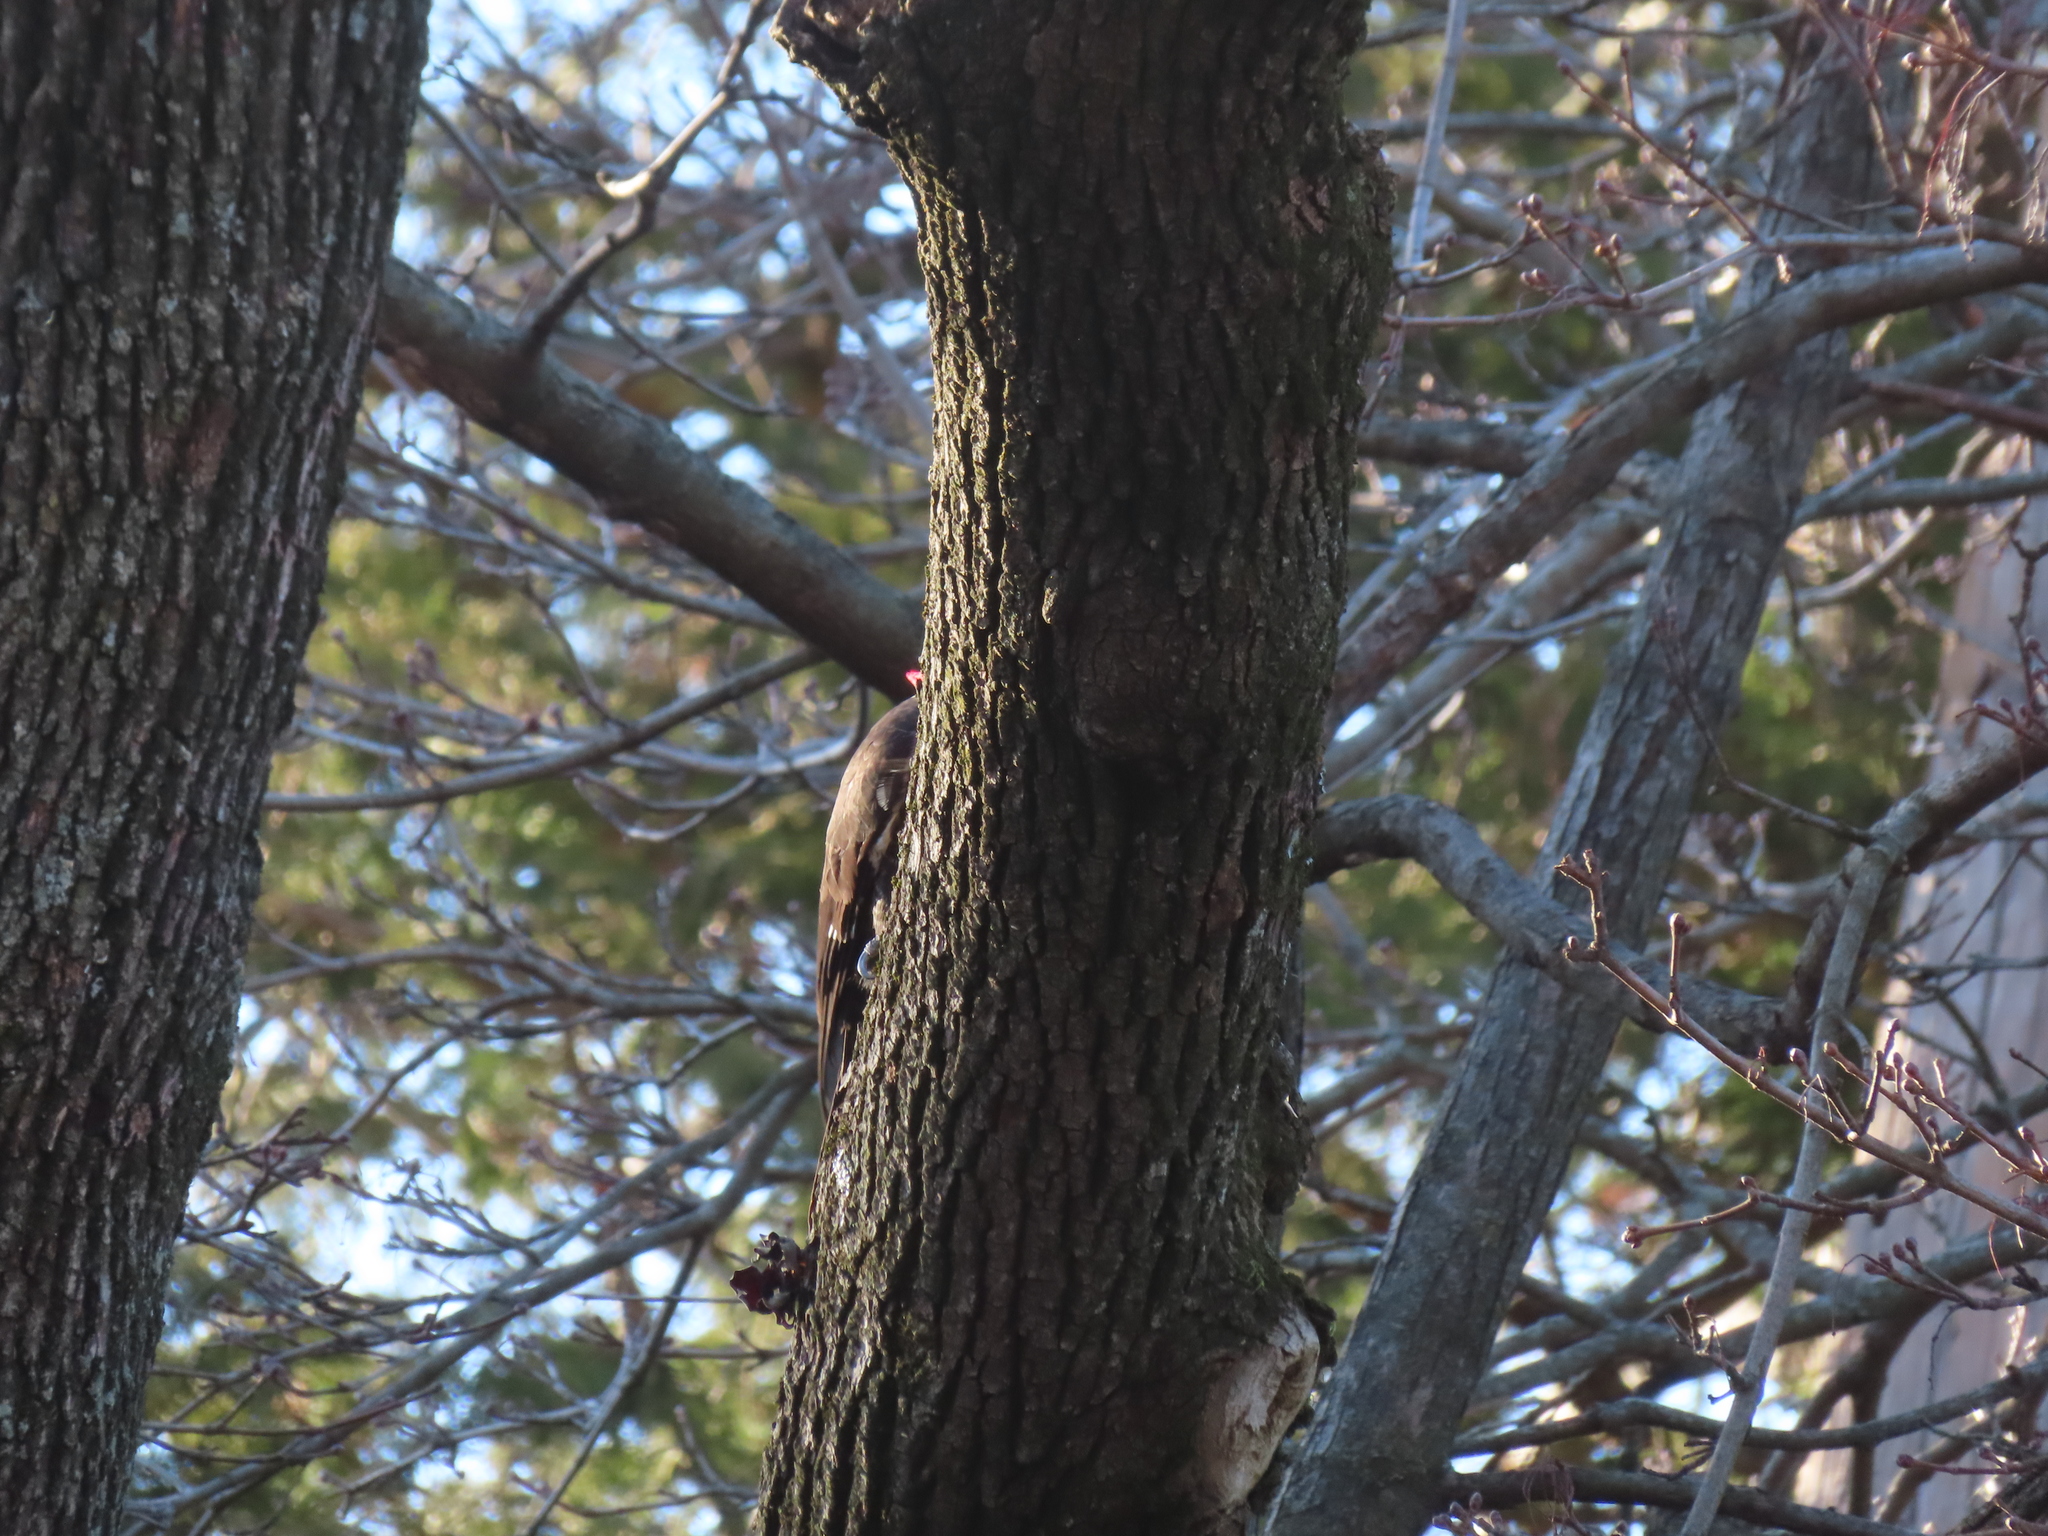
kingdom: Animalia
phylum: Chordata
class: Aves
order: Piciformes
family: Picidae
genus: Dryocopus
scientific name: Dryocopus pileatus
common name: Pileated woodpecker
